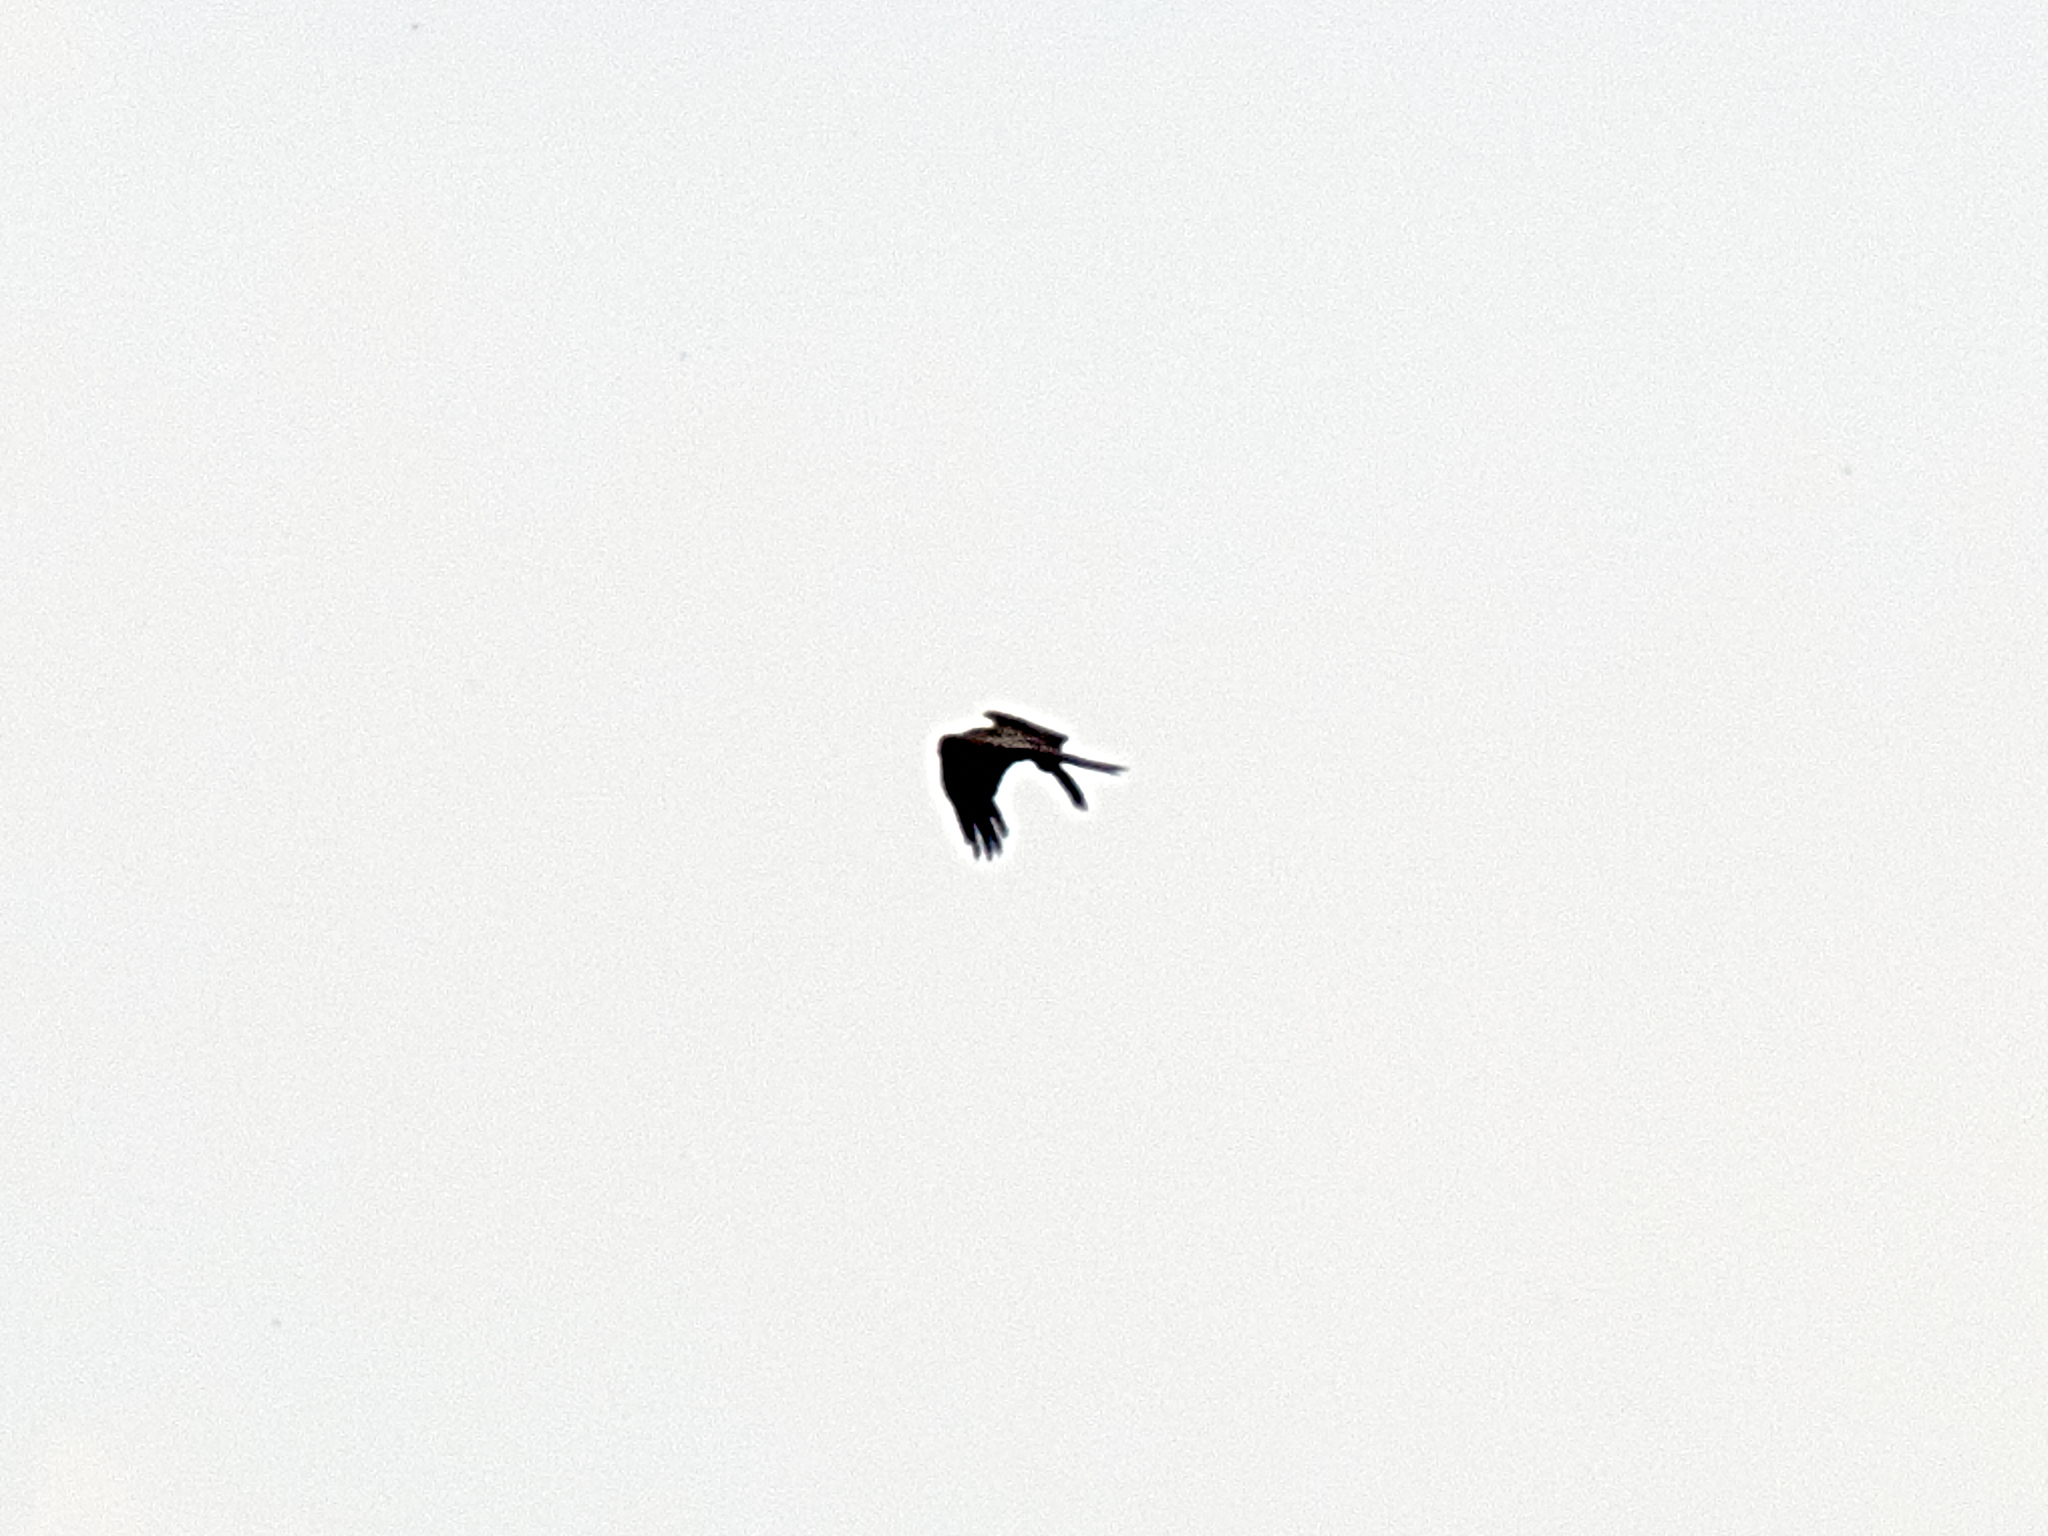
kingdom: Animalia
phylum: Chordata
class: Aves
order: Accipitriformes
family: Accipitridae
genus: Milvus
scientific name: Milvus migrans
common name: Black kite
